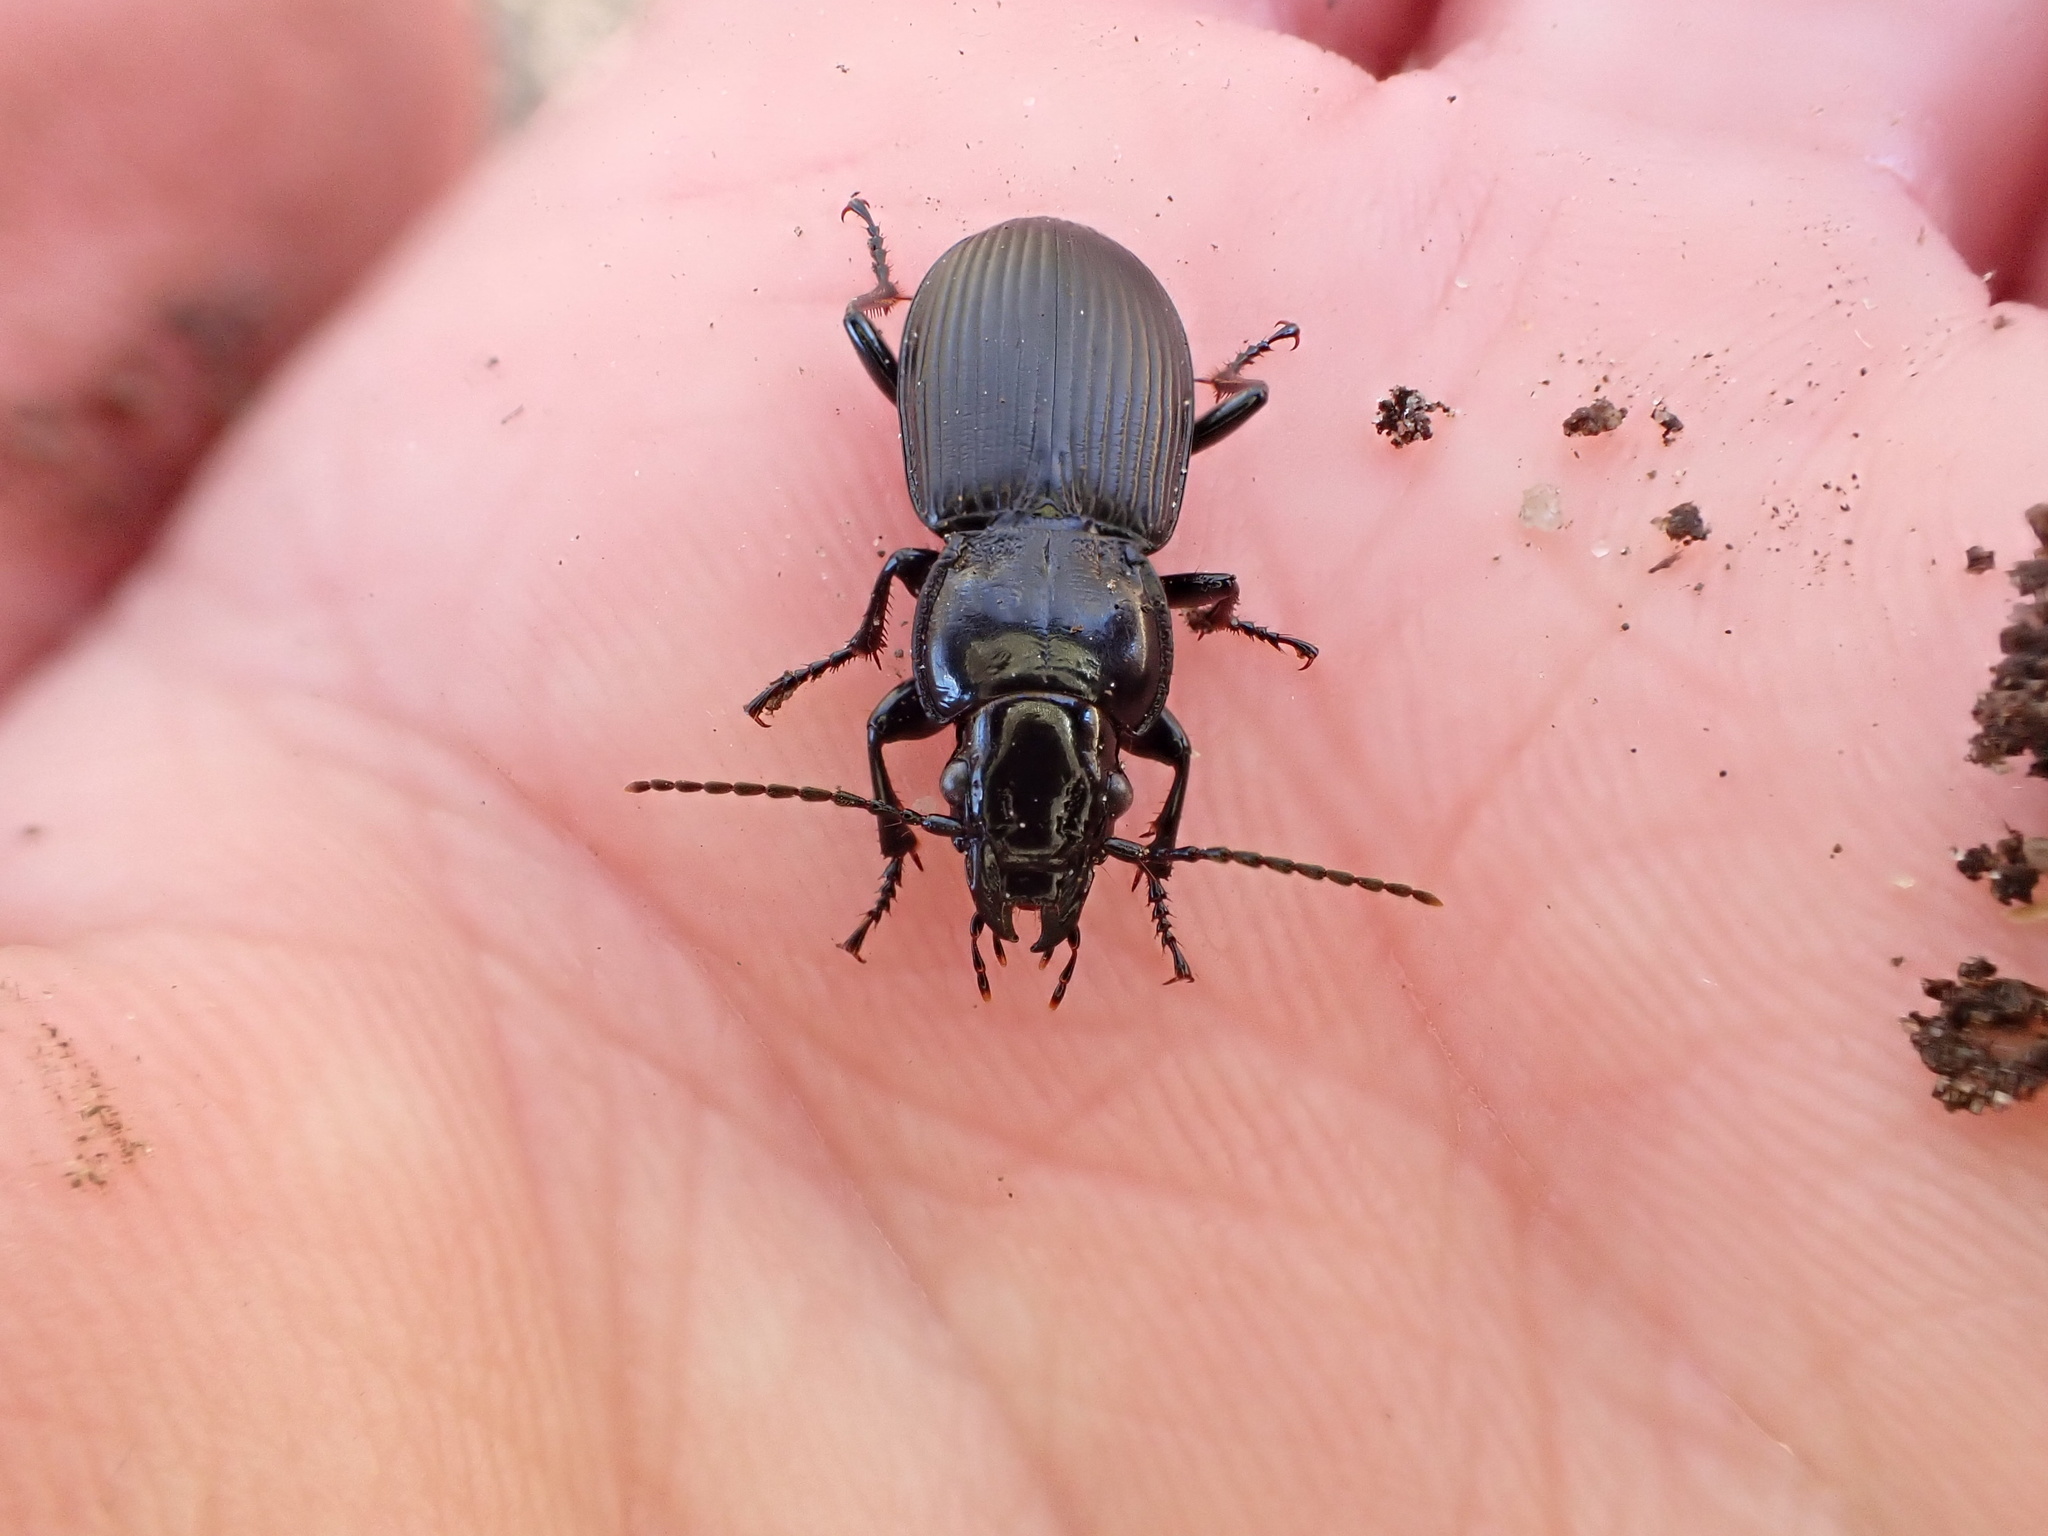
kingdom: Animalia
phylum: Arthropoda
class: Insecta
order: Coleoptera
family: Carabidae
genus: Pterostichus
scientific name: Pterostichus melanarius
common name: European dark harp ground beetle
